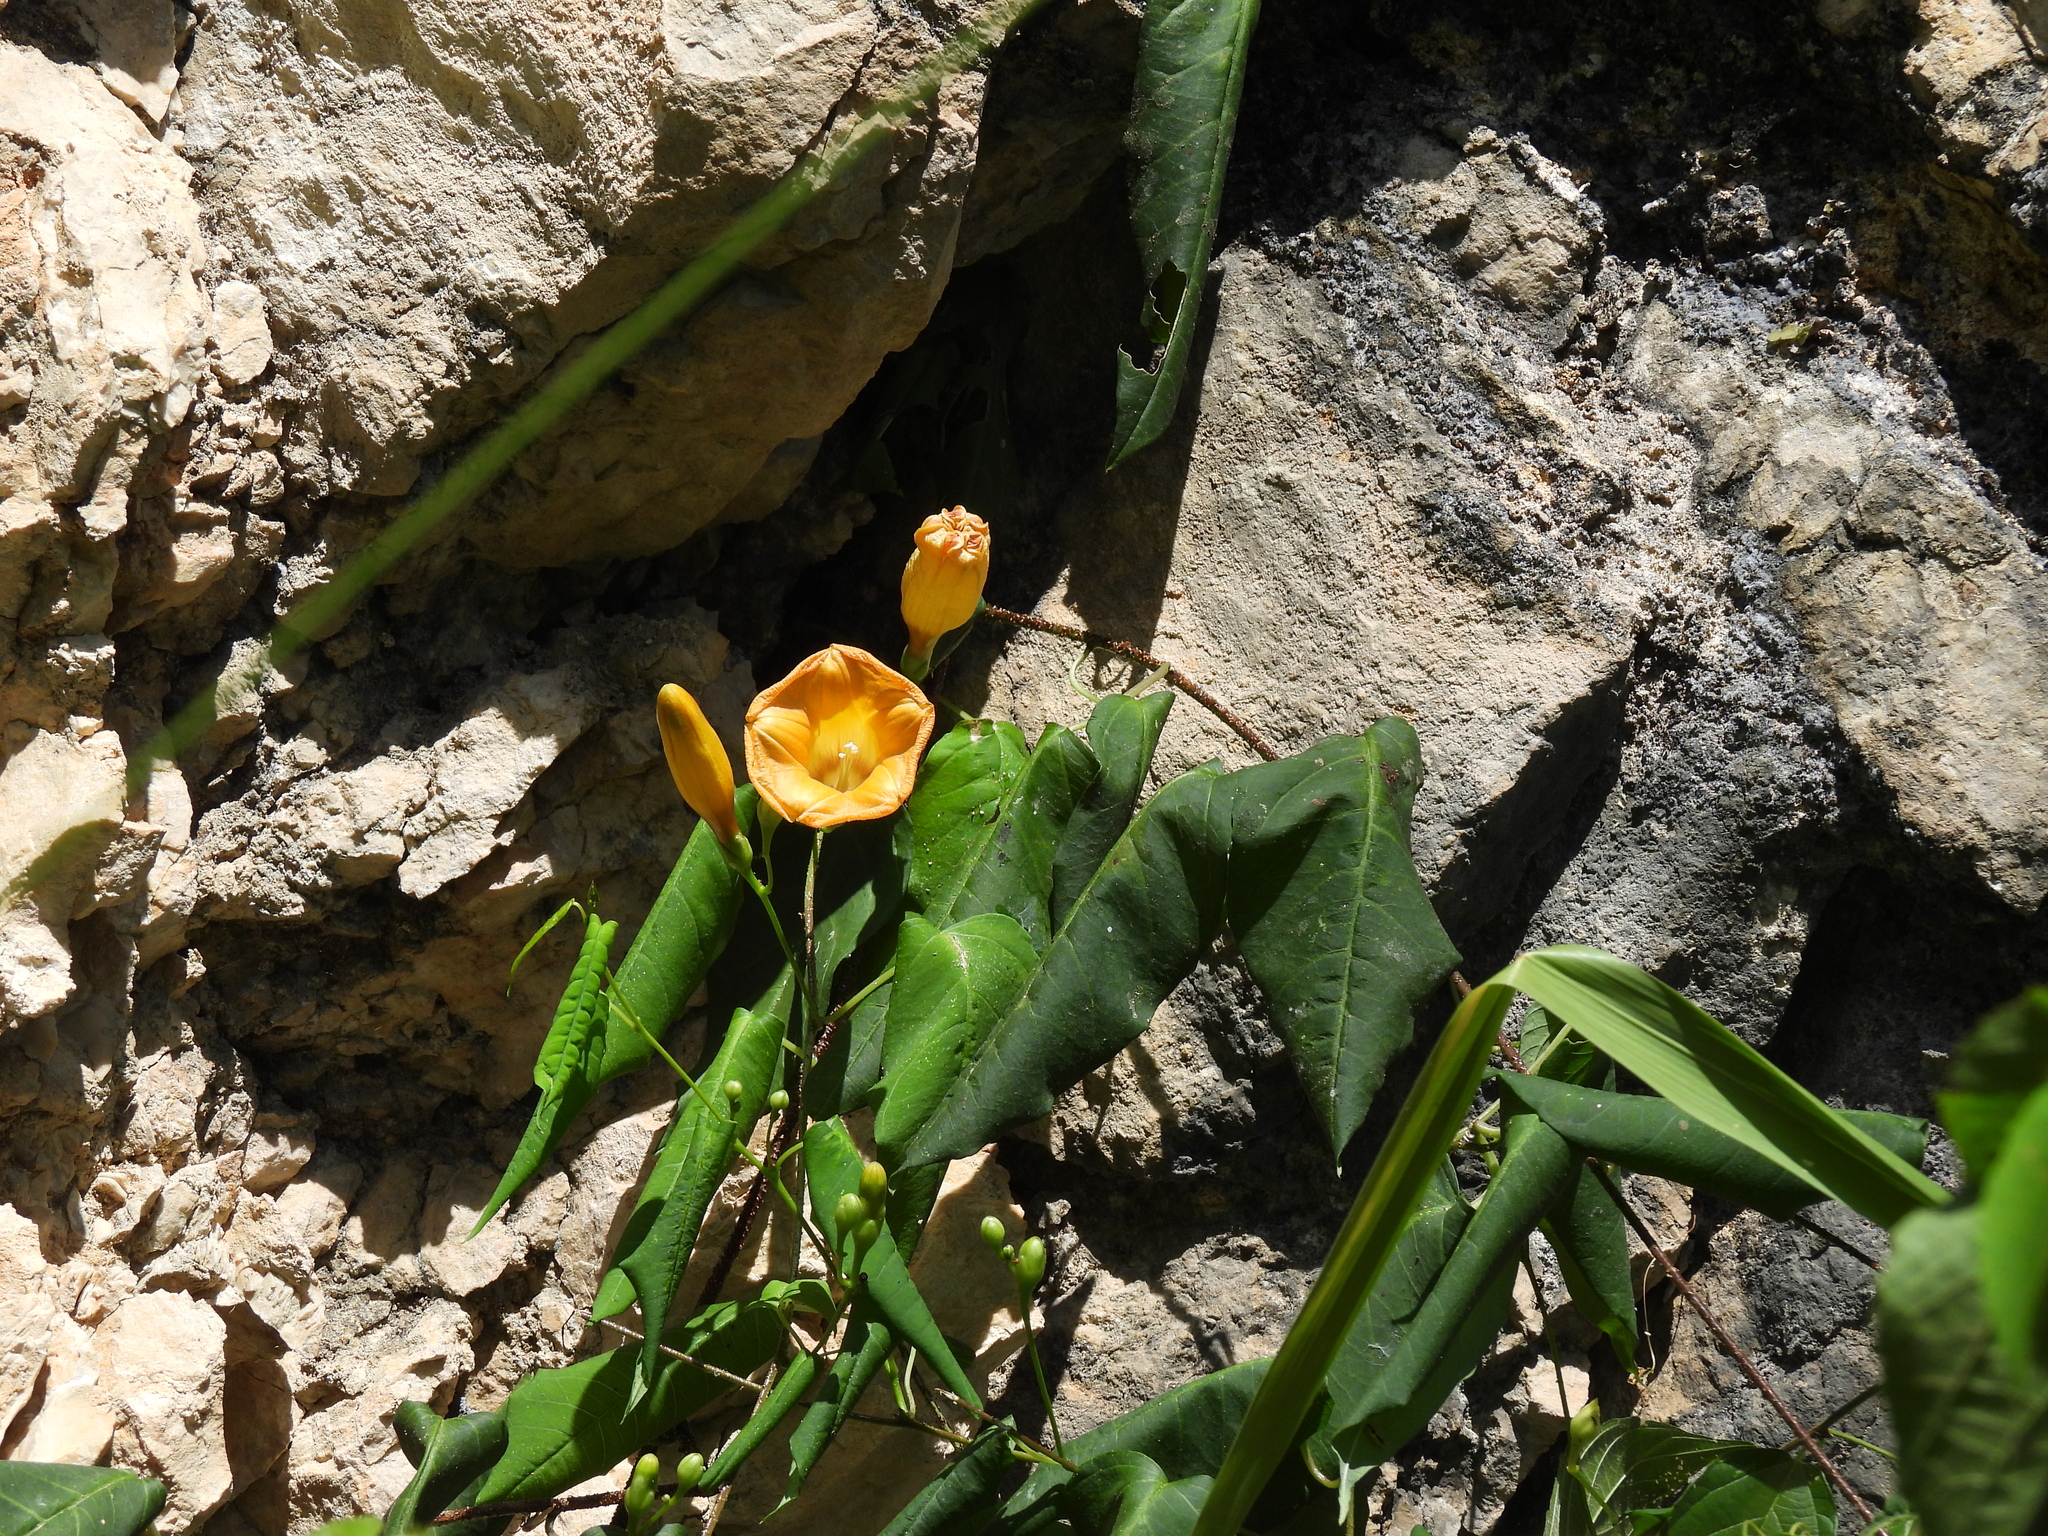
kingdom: Plantae
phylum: Tracheophyta
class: Magnoliopsida
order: Solanales
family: Convolvulaceae
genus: Ipomoea
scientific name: Ipomoea aurantiaca
